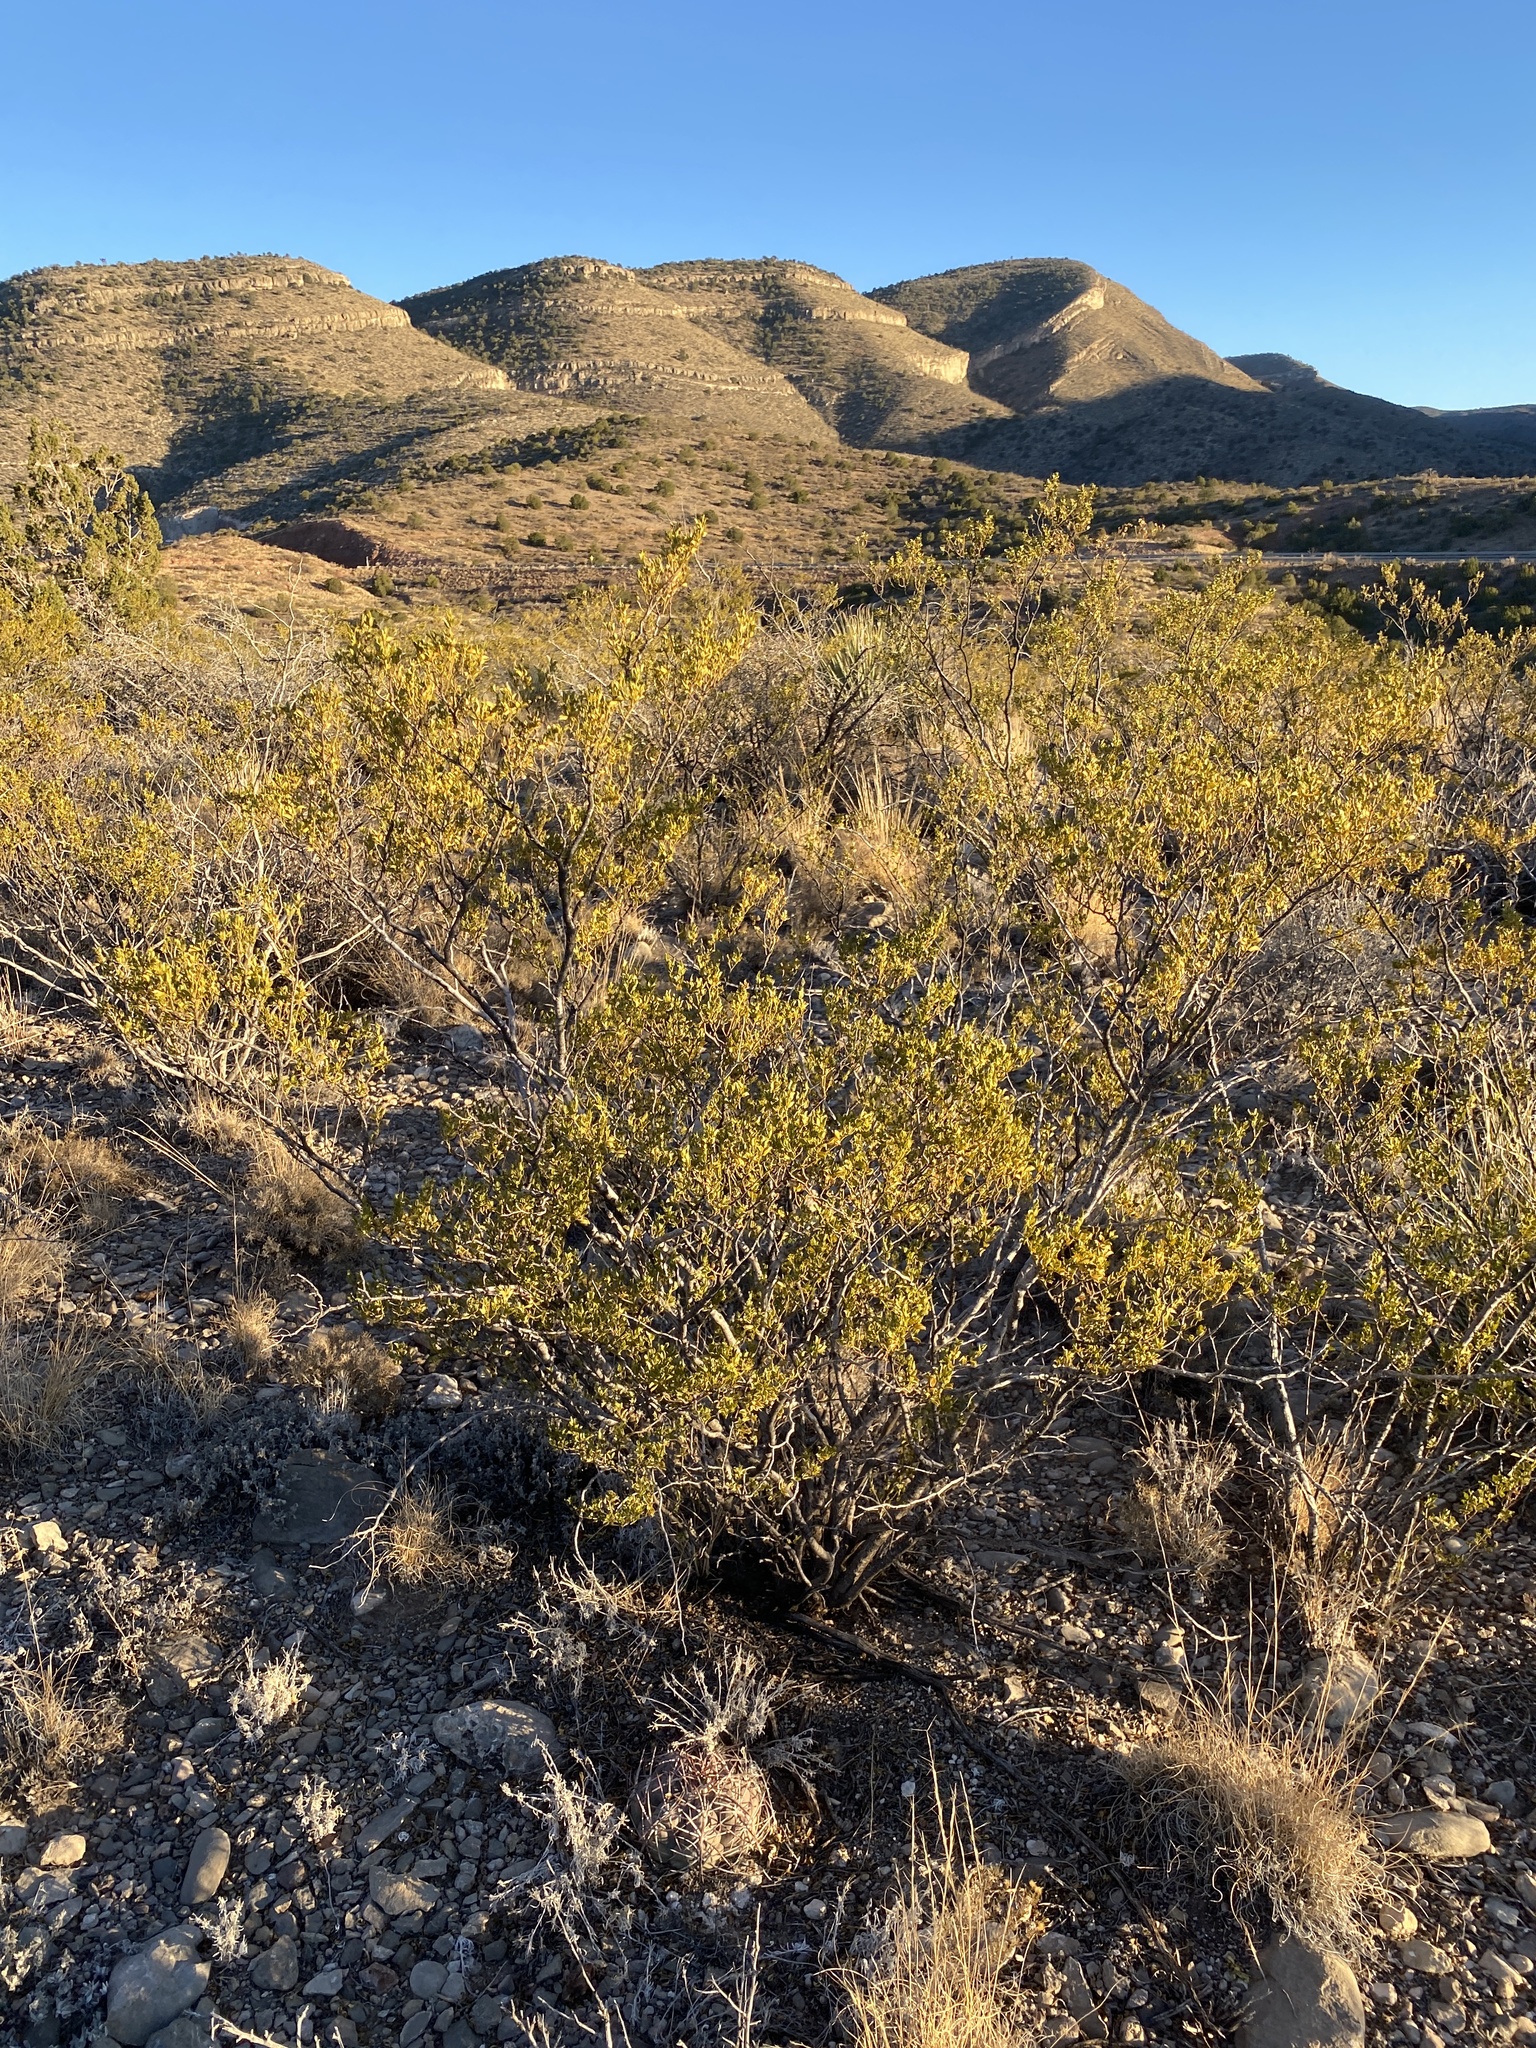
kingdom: Plantae
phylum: Tracheophyta
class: Magnoliopsida
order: Zygophyllales
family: Zygophyllaceae
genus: Larrea
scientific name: Larrea tridentata
